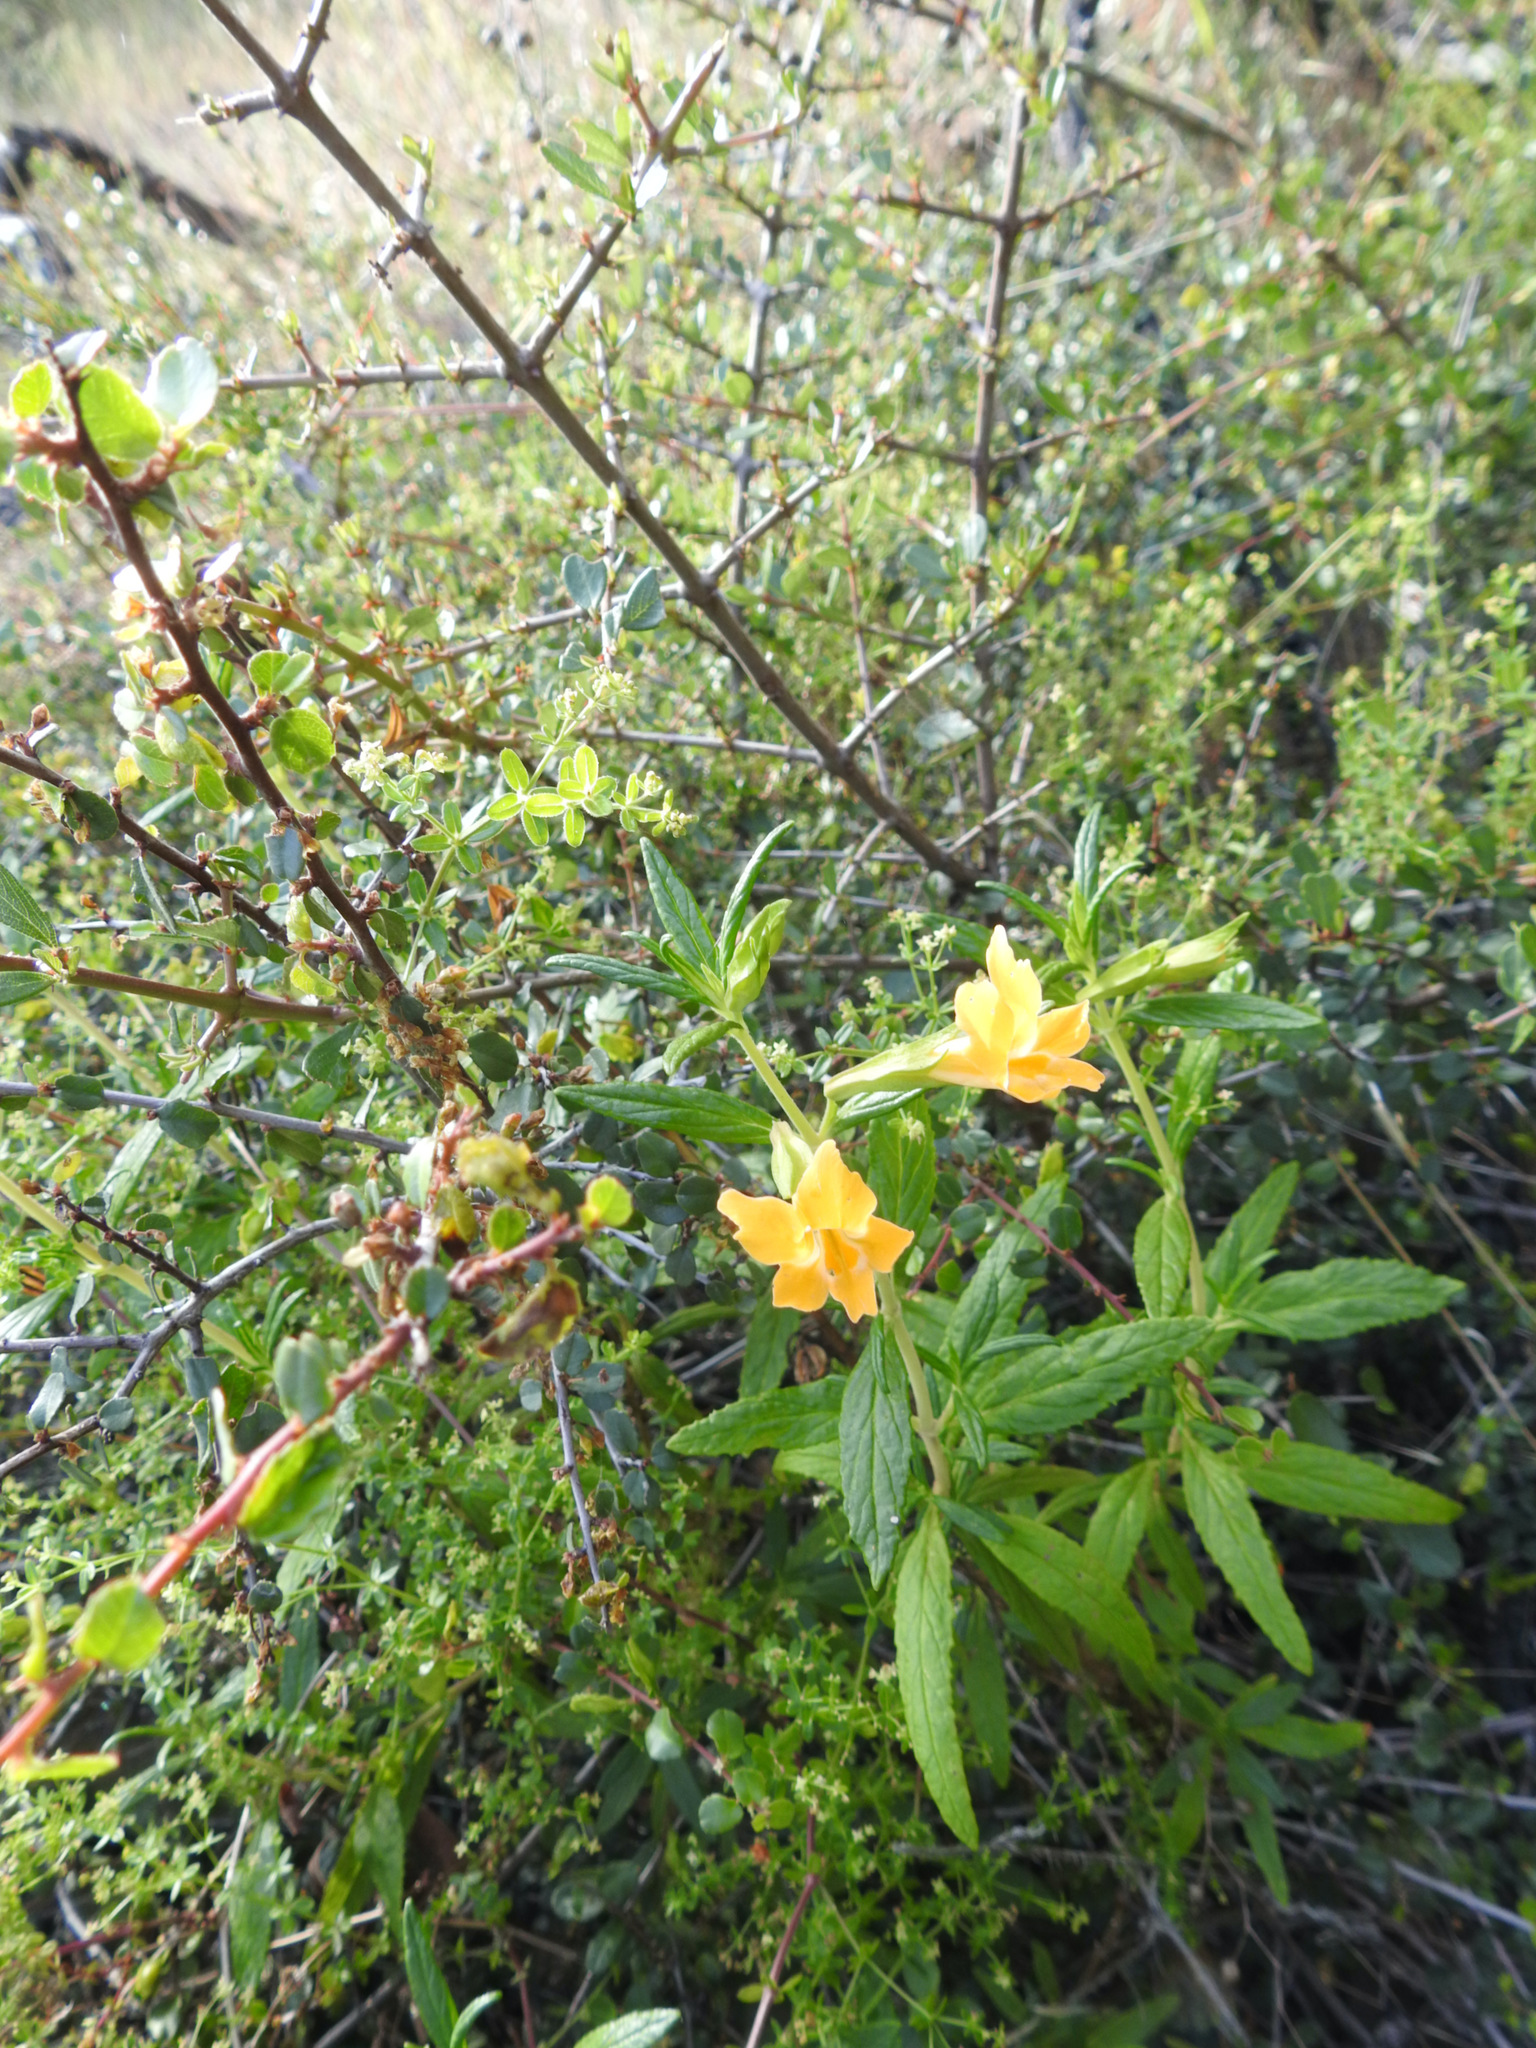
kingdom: Plantae
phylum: Tracheophyta
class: Magnoliopsida
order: Lamiales
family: Phrymaceae
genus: Diplacus
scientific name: Diplacus aurantiacus
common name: Bush monkey-flower
